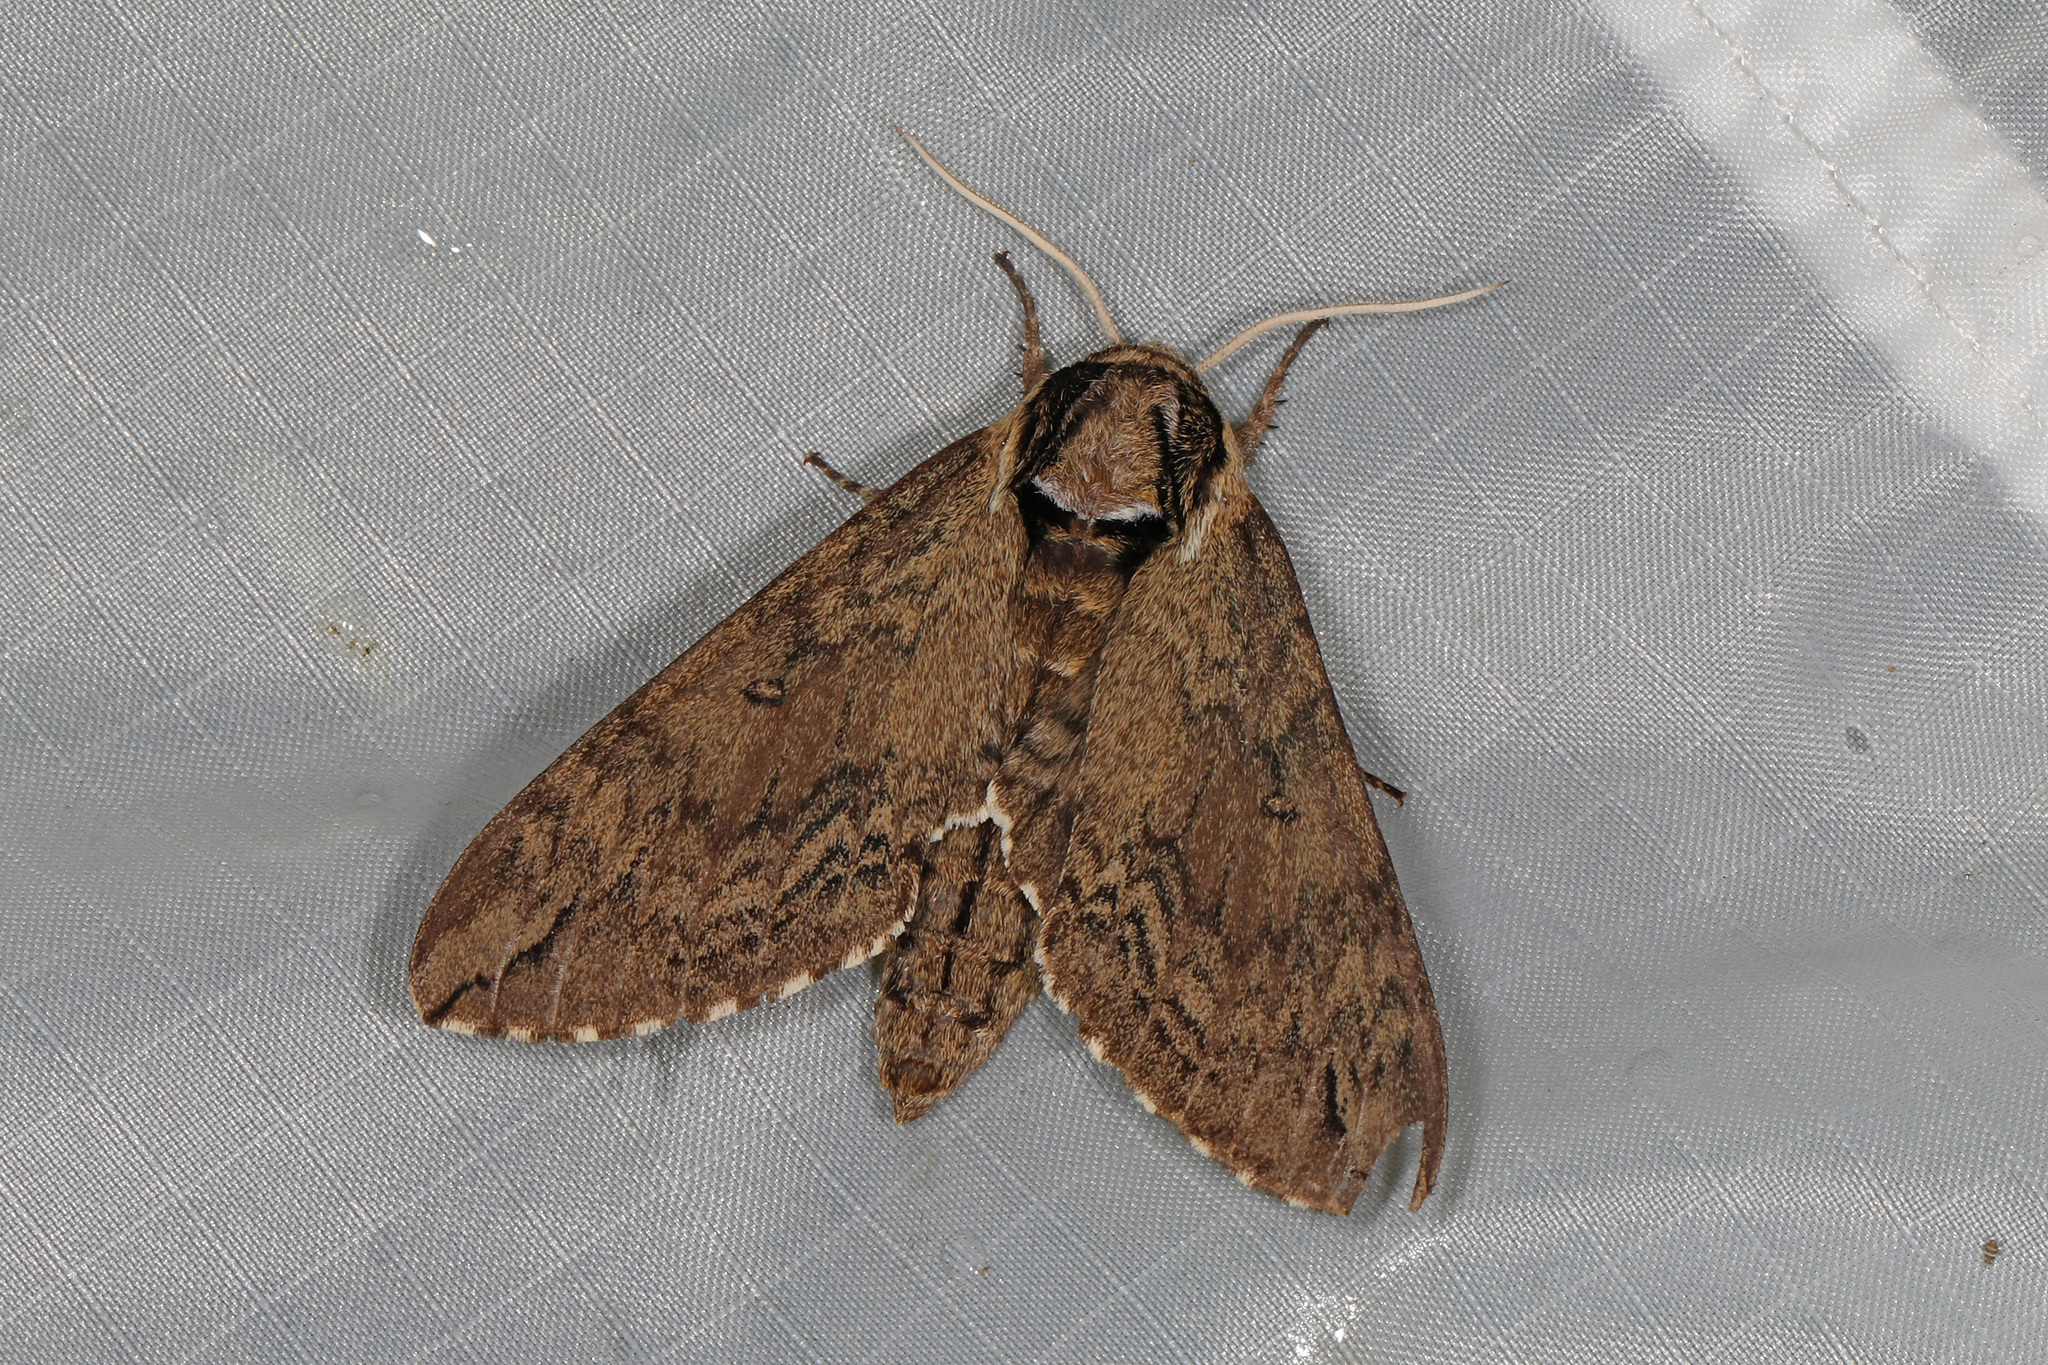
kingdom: Animalia
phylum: Arthropoda
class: Insecta
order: Lepidoptera
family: Sphingidae
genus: Ceratomia
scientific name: Ceratomia catalpae
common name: Catalpa hornworm
